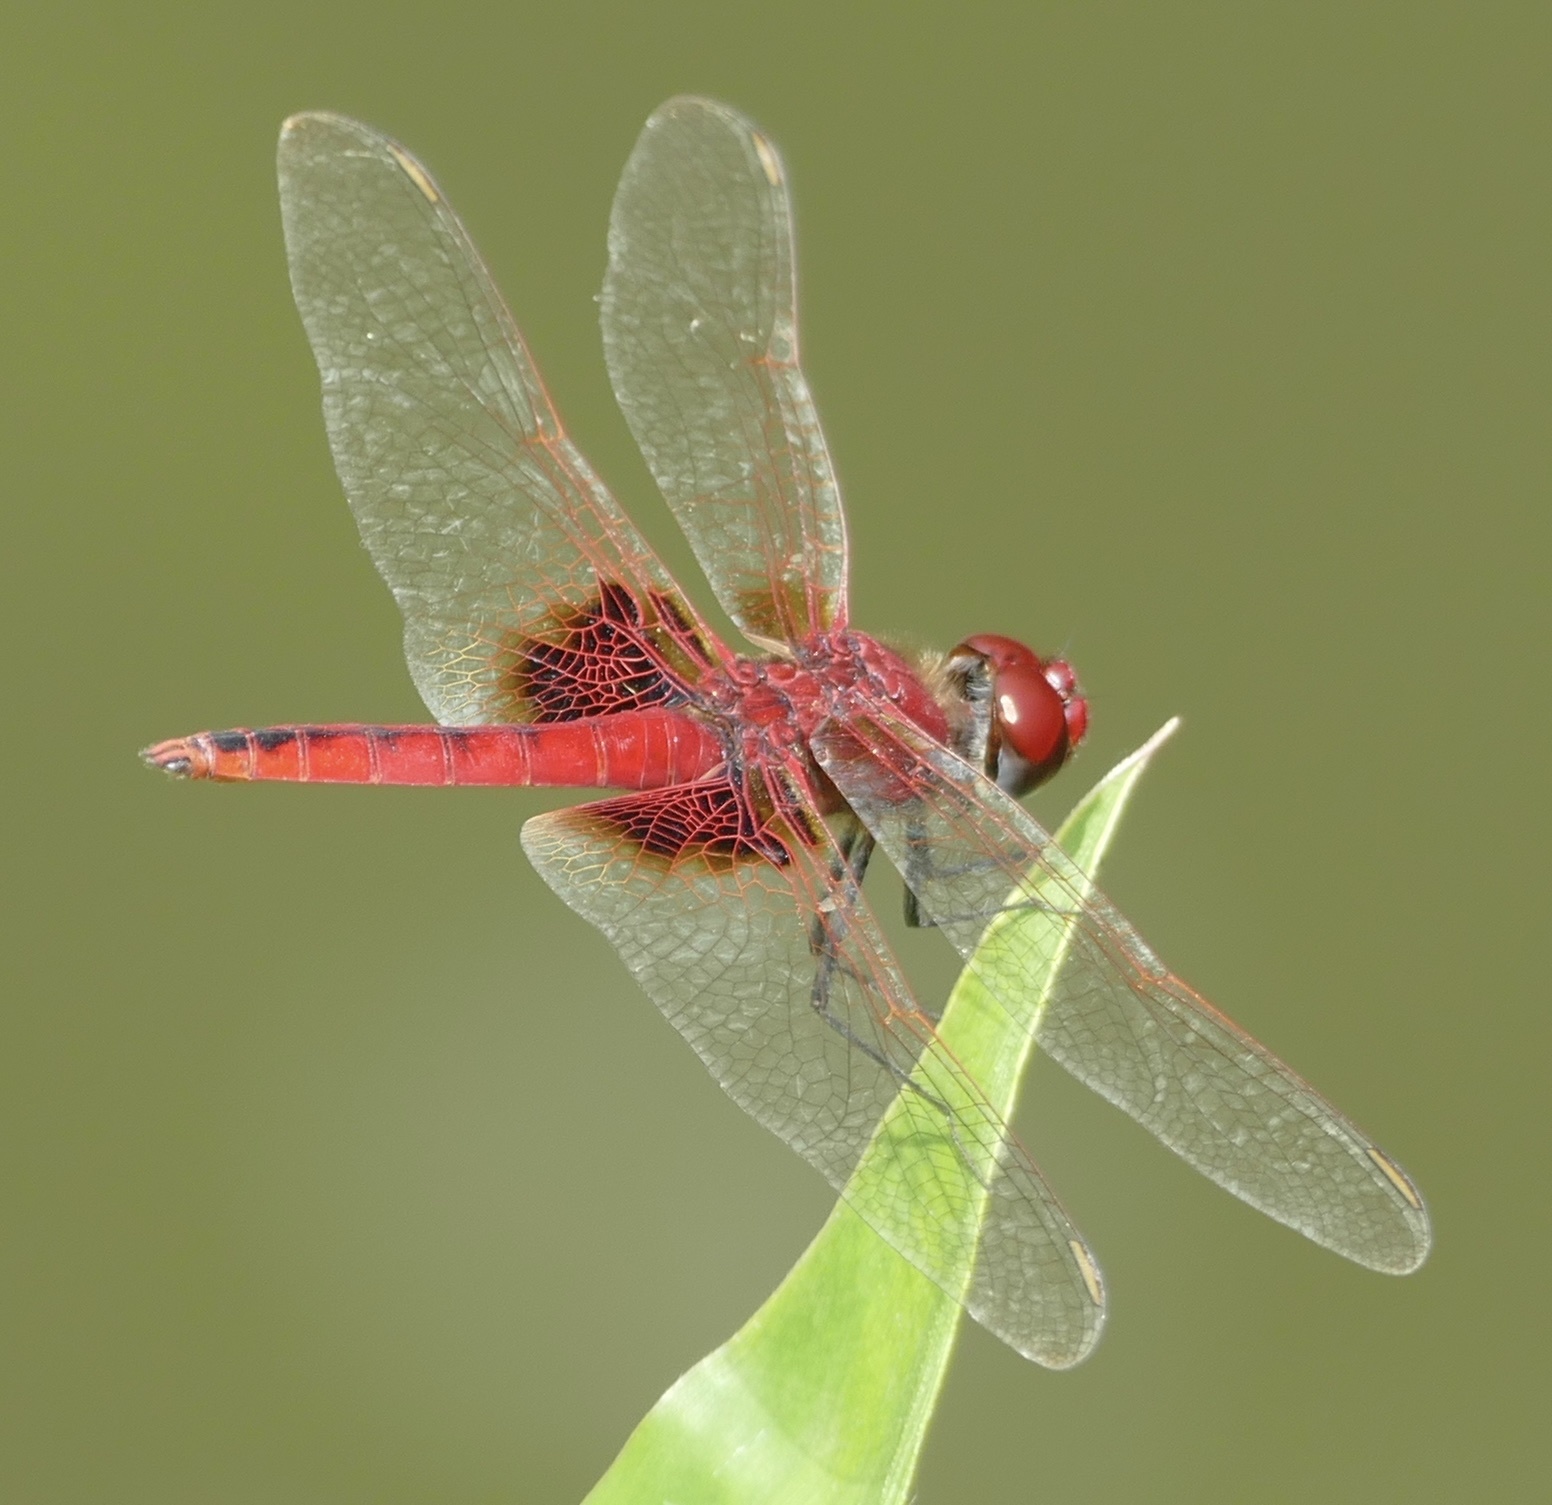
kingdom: Animalia
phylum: Arthropoda
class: Insecta
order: Odonata
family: Libellulidae
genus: Urothemis
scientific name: Urothemis assignata
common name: Red basker
